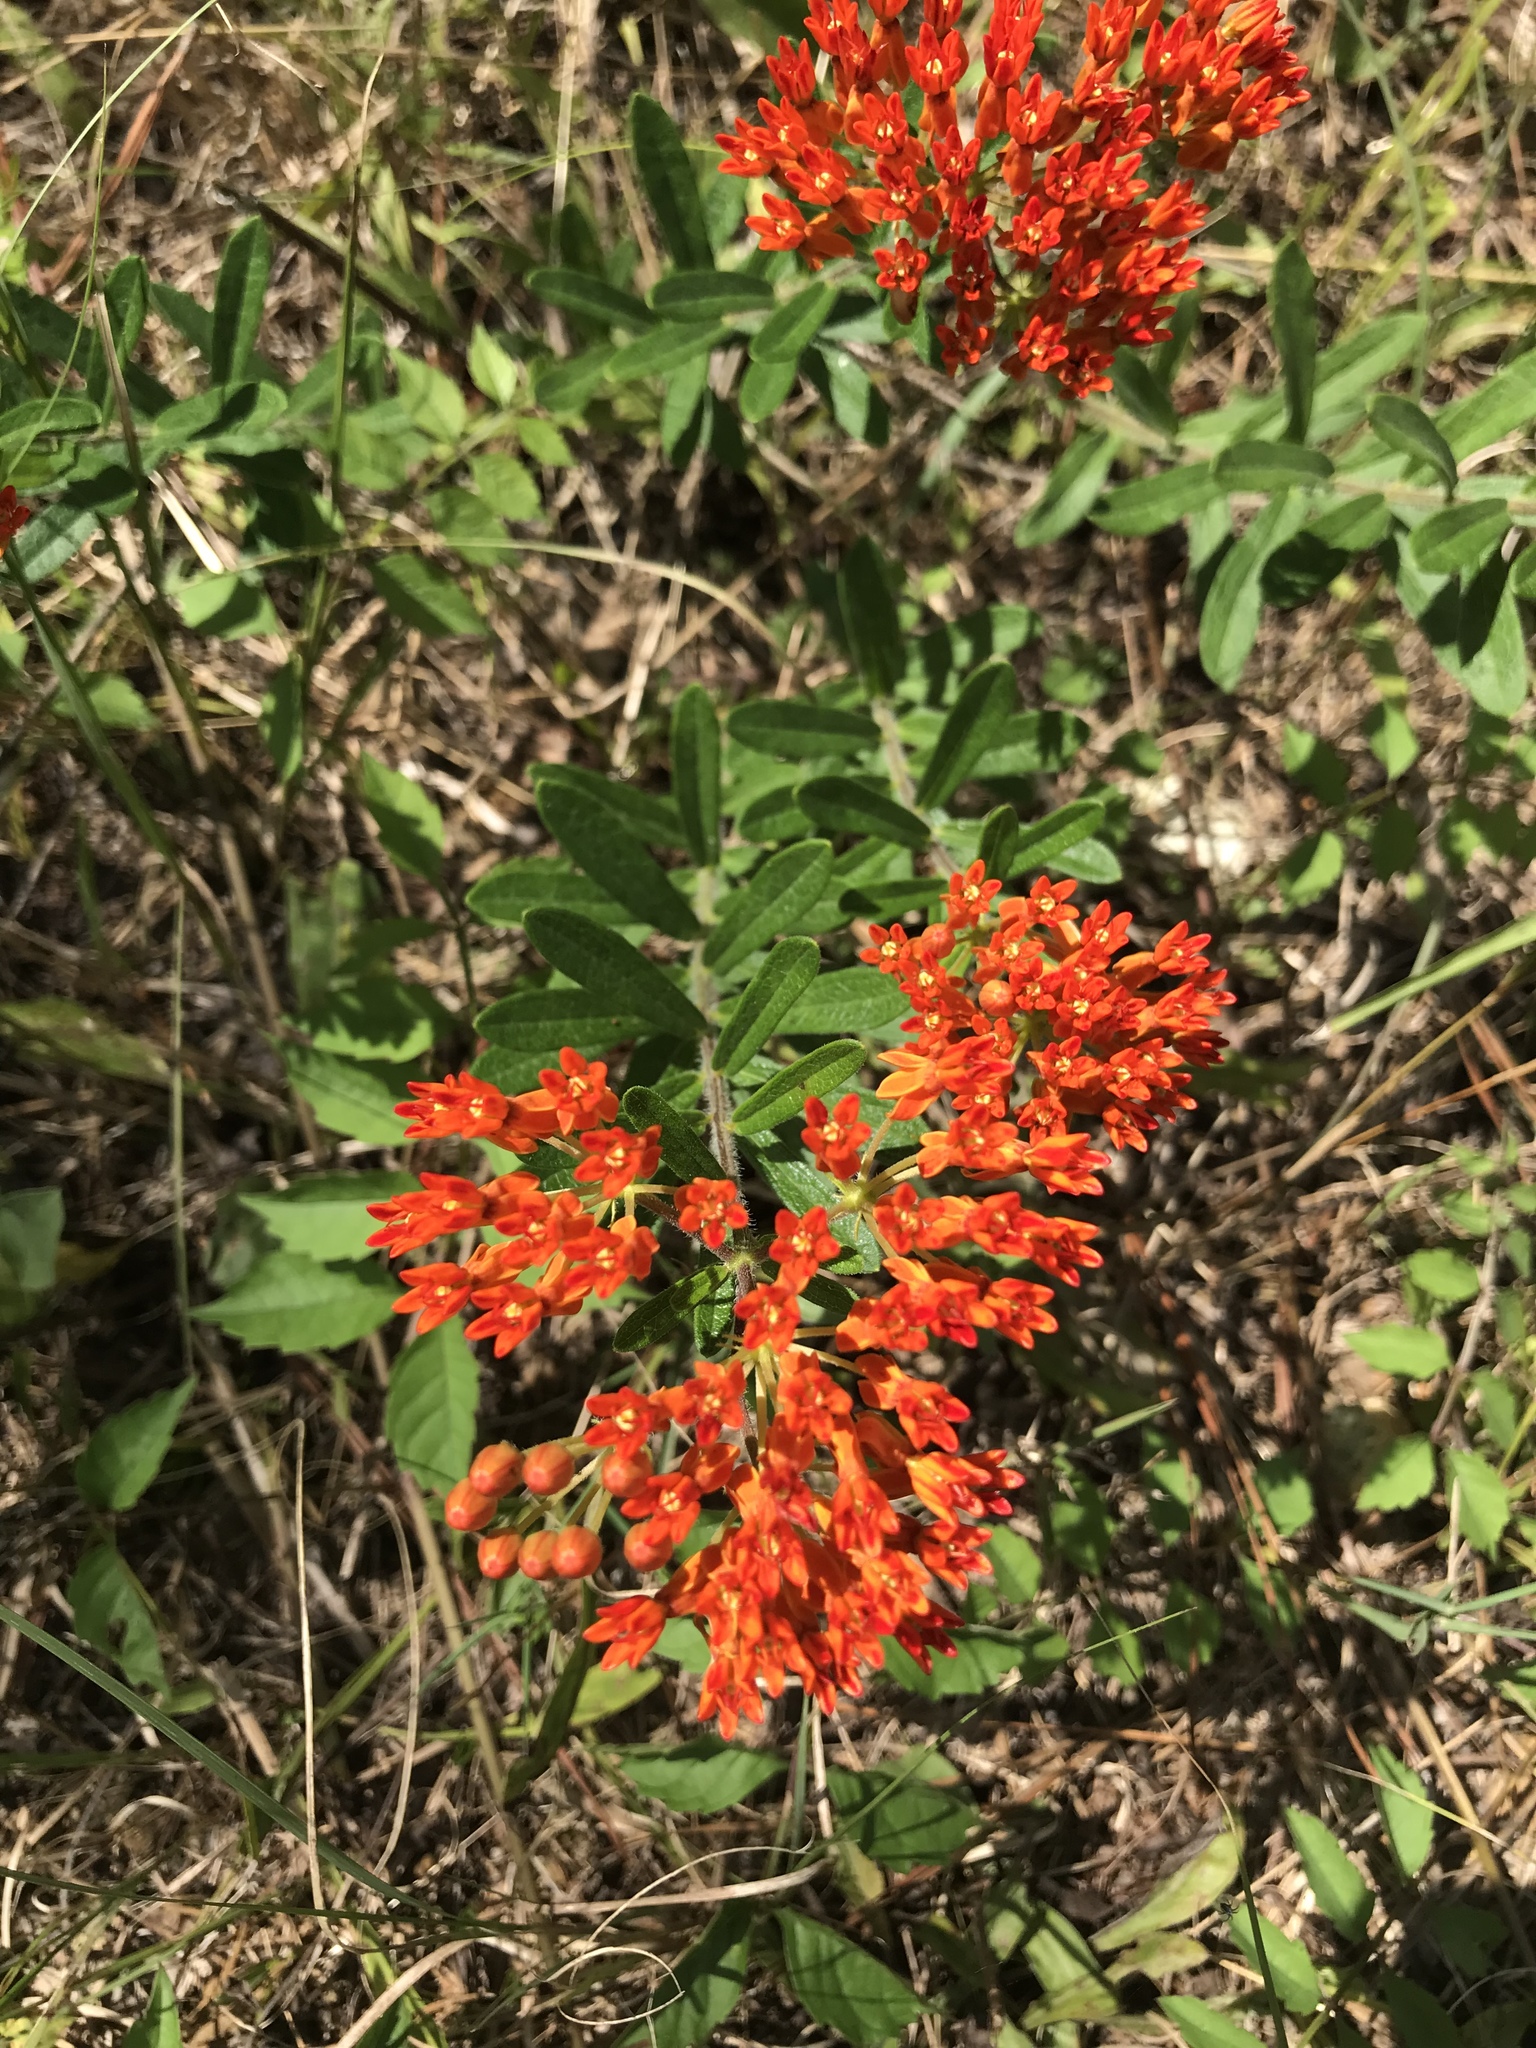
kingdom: Plantae
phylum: Tracheophyta
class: Magnoliopsida
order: Gentianales
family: Apocynaceae
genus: Asclepias
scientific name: Asclepias tuberosa
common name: Butterfly milkweed
